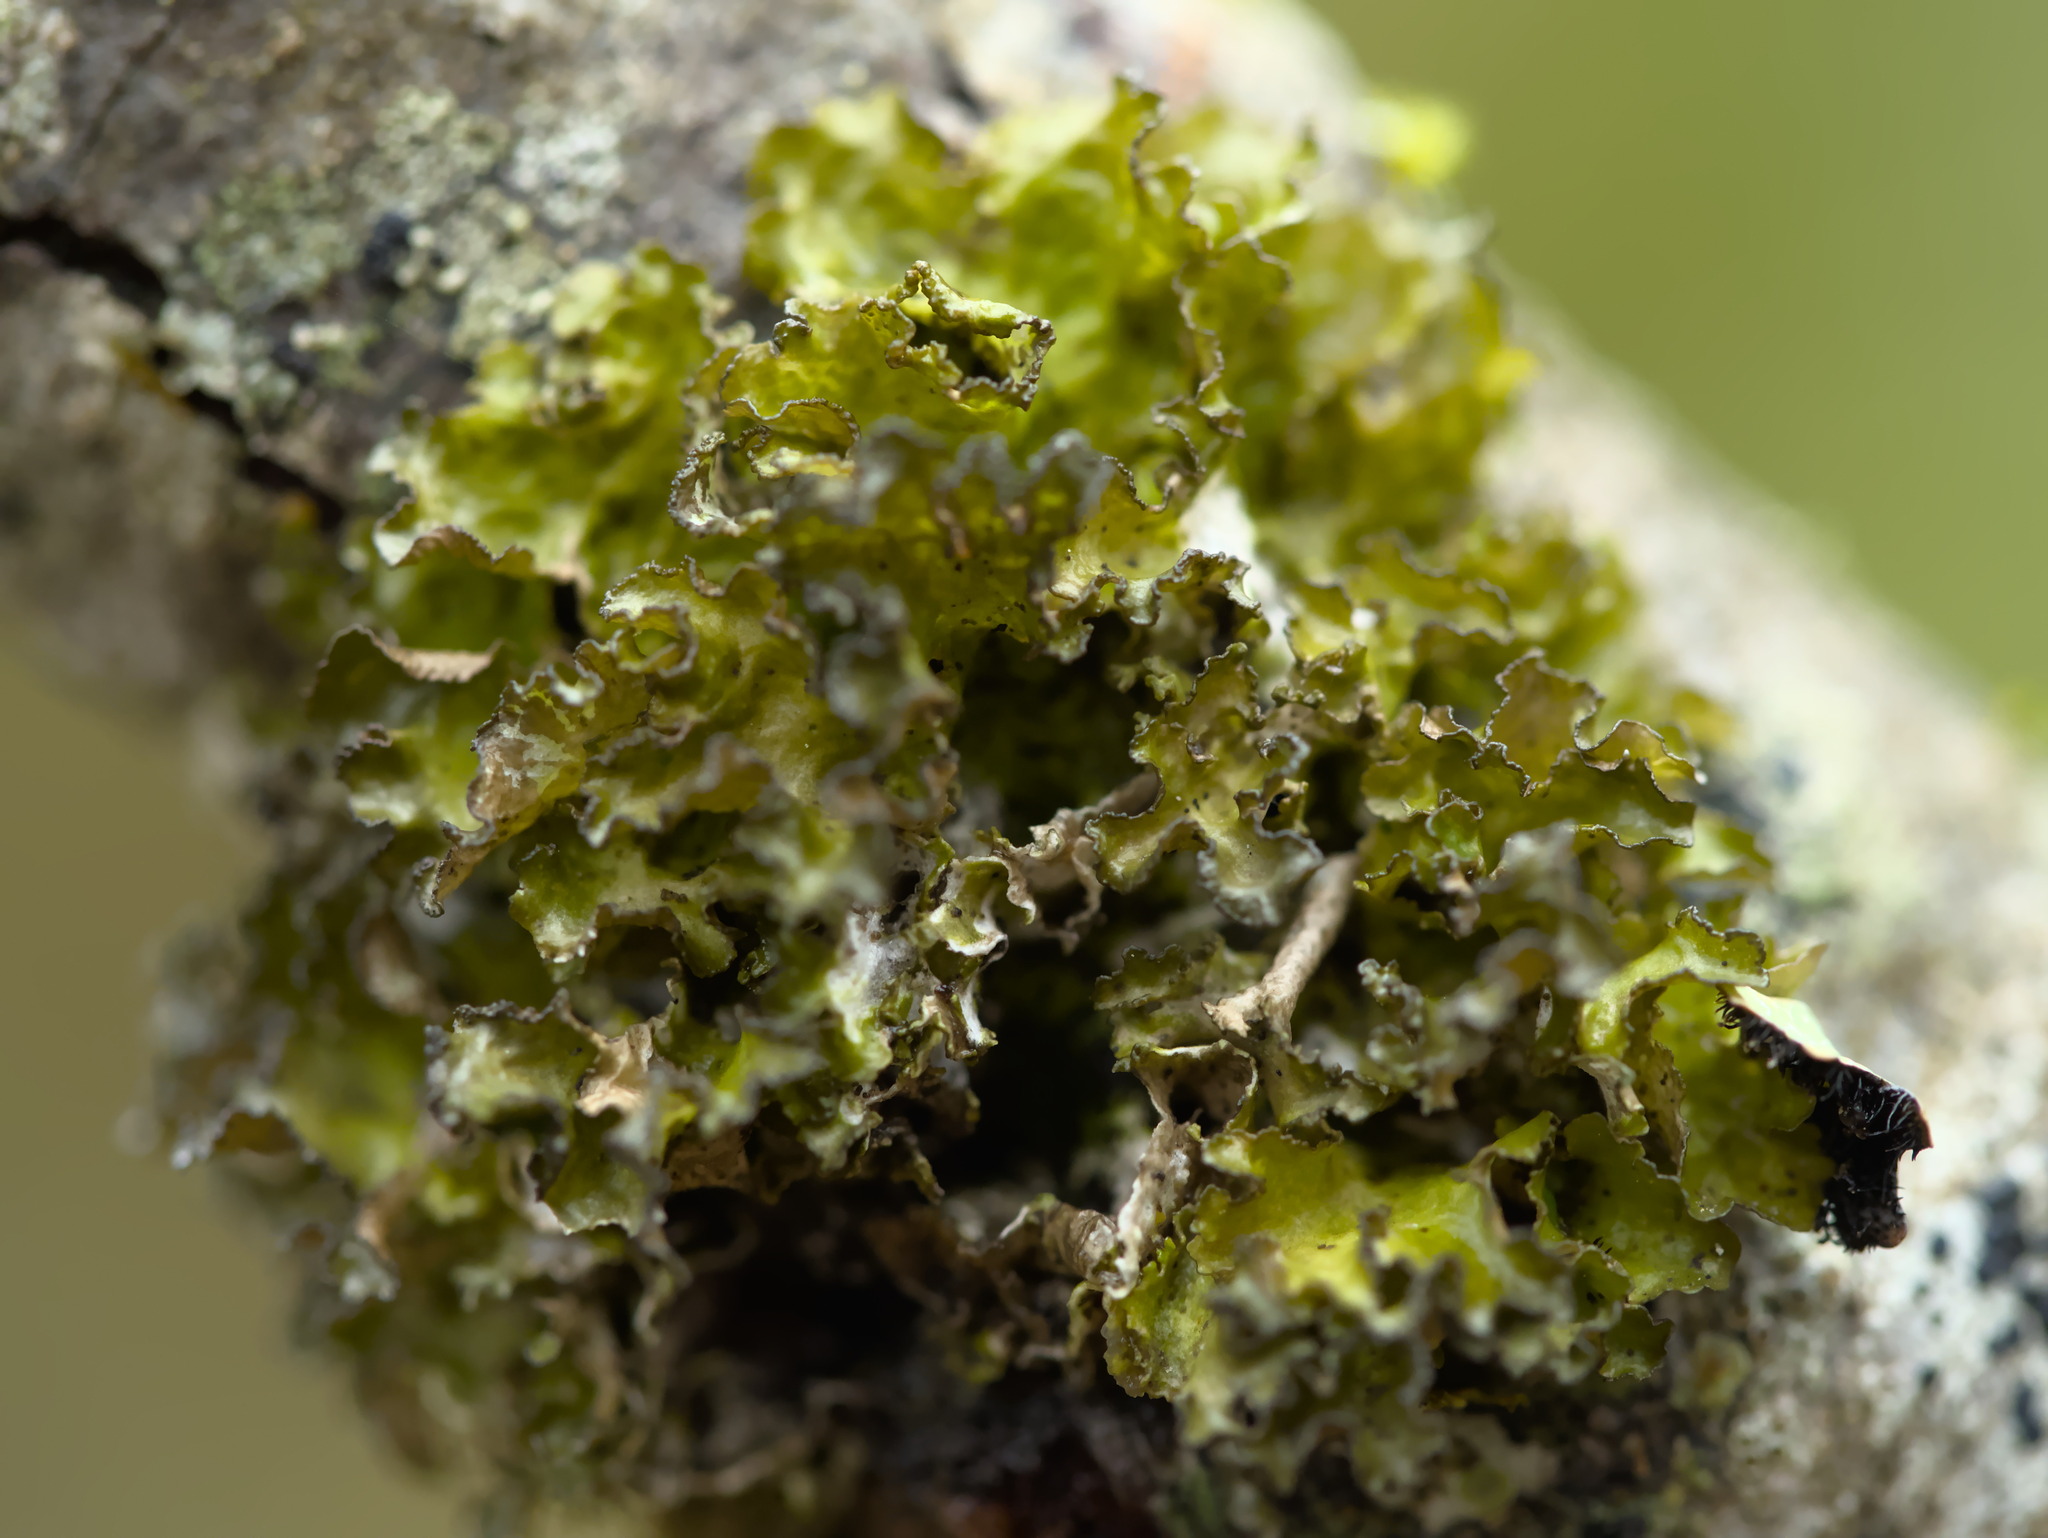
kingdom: Fungi
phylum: Ascomycota
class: Lecanoromycetes
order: Lecanorales
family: Parmeliaceae
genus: Nephromopsis
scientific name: Nephromopsis orbata
